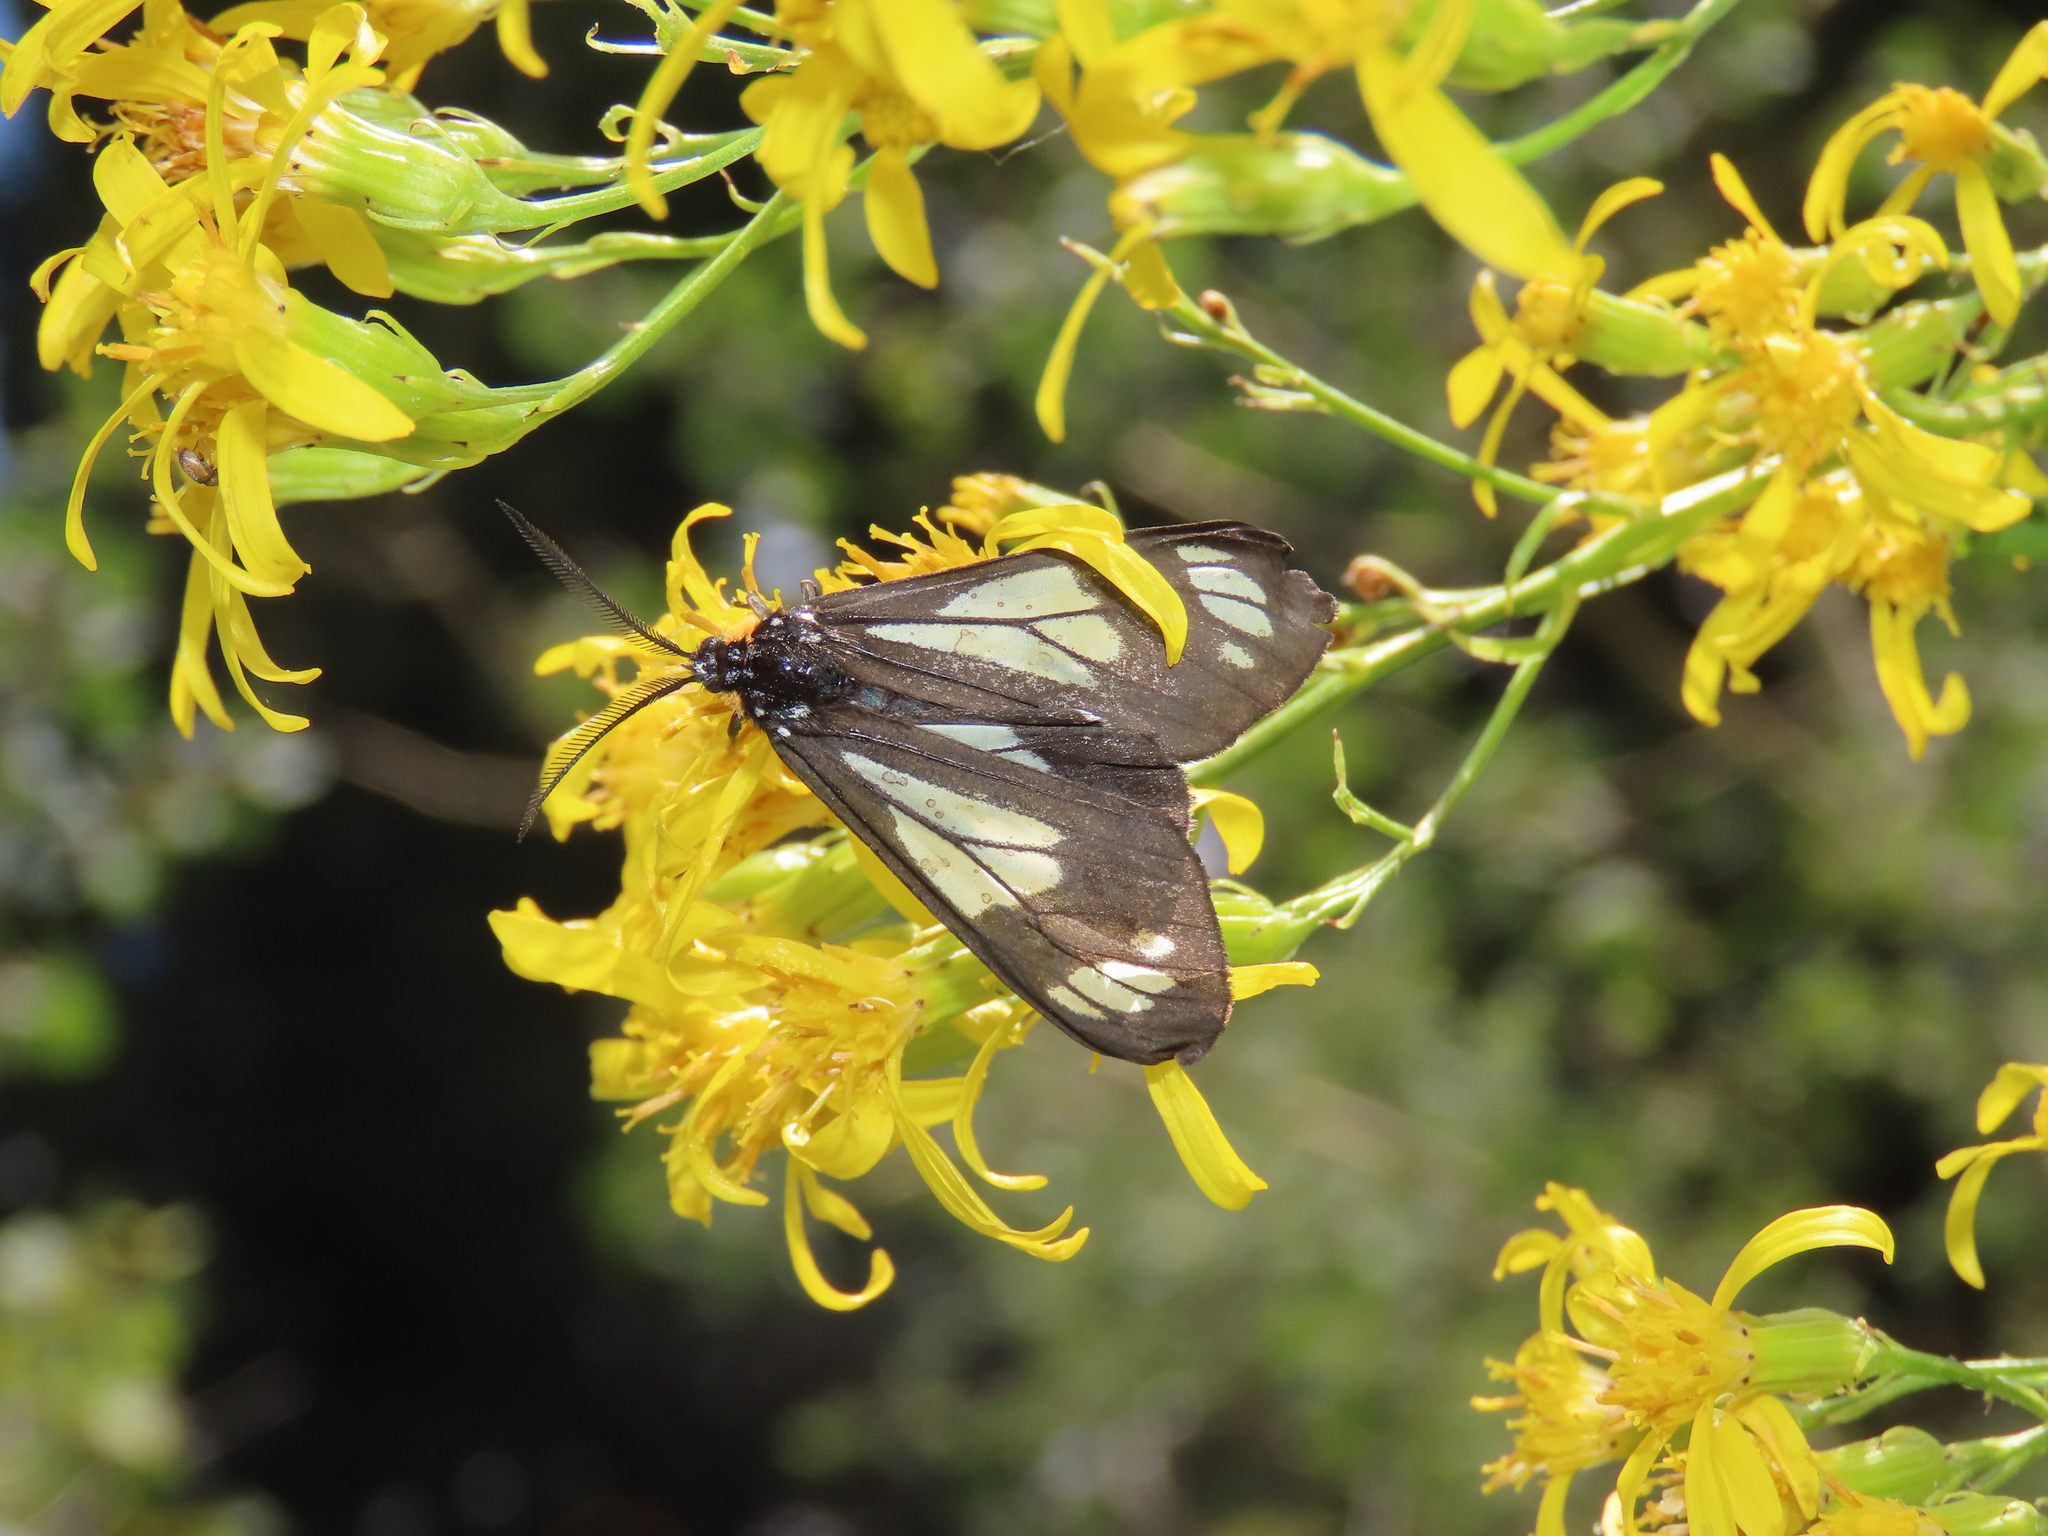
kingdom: Animalia
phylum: Arthropoda
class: Insecta
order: Lepidoptera
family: Erebidae
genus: Gnophaela
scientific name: Gnophaela vermiculata
